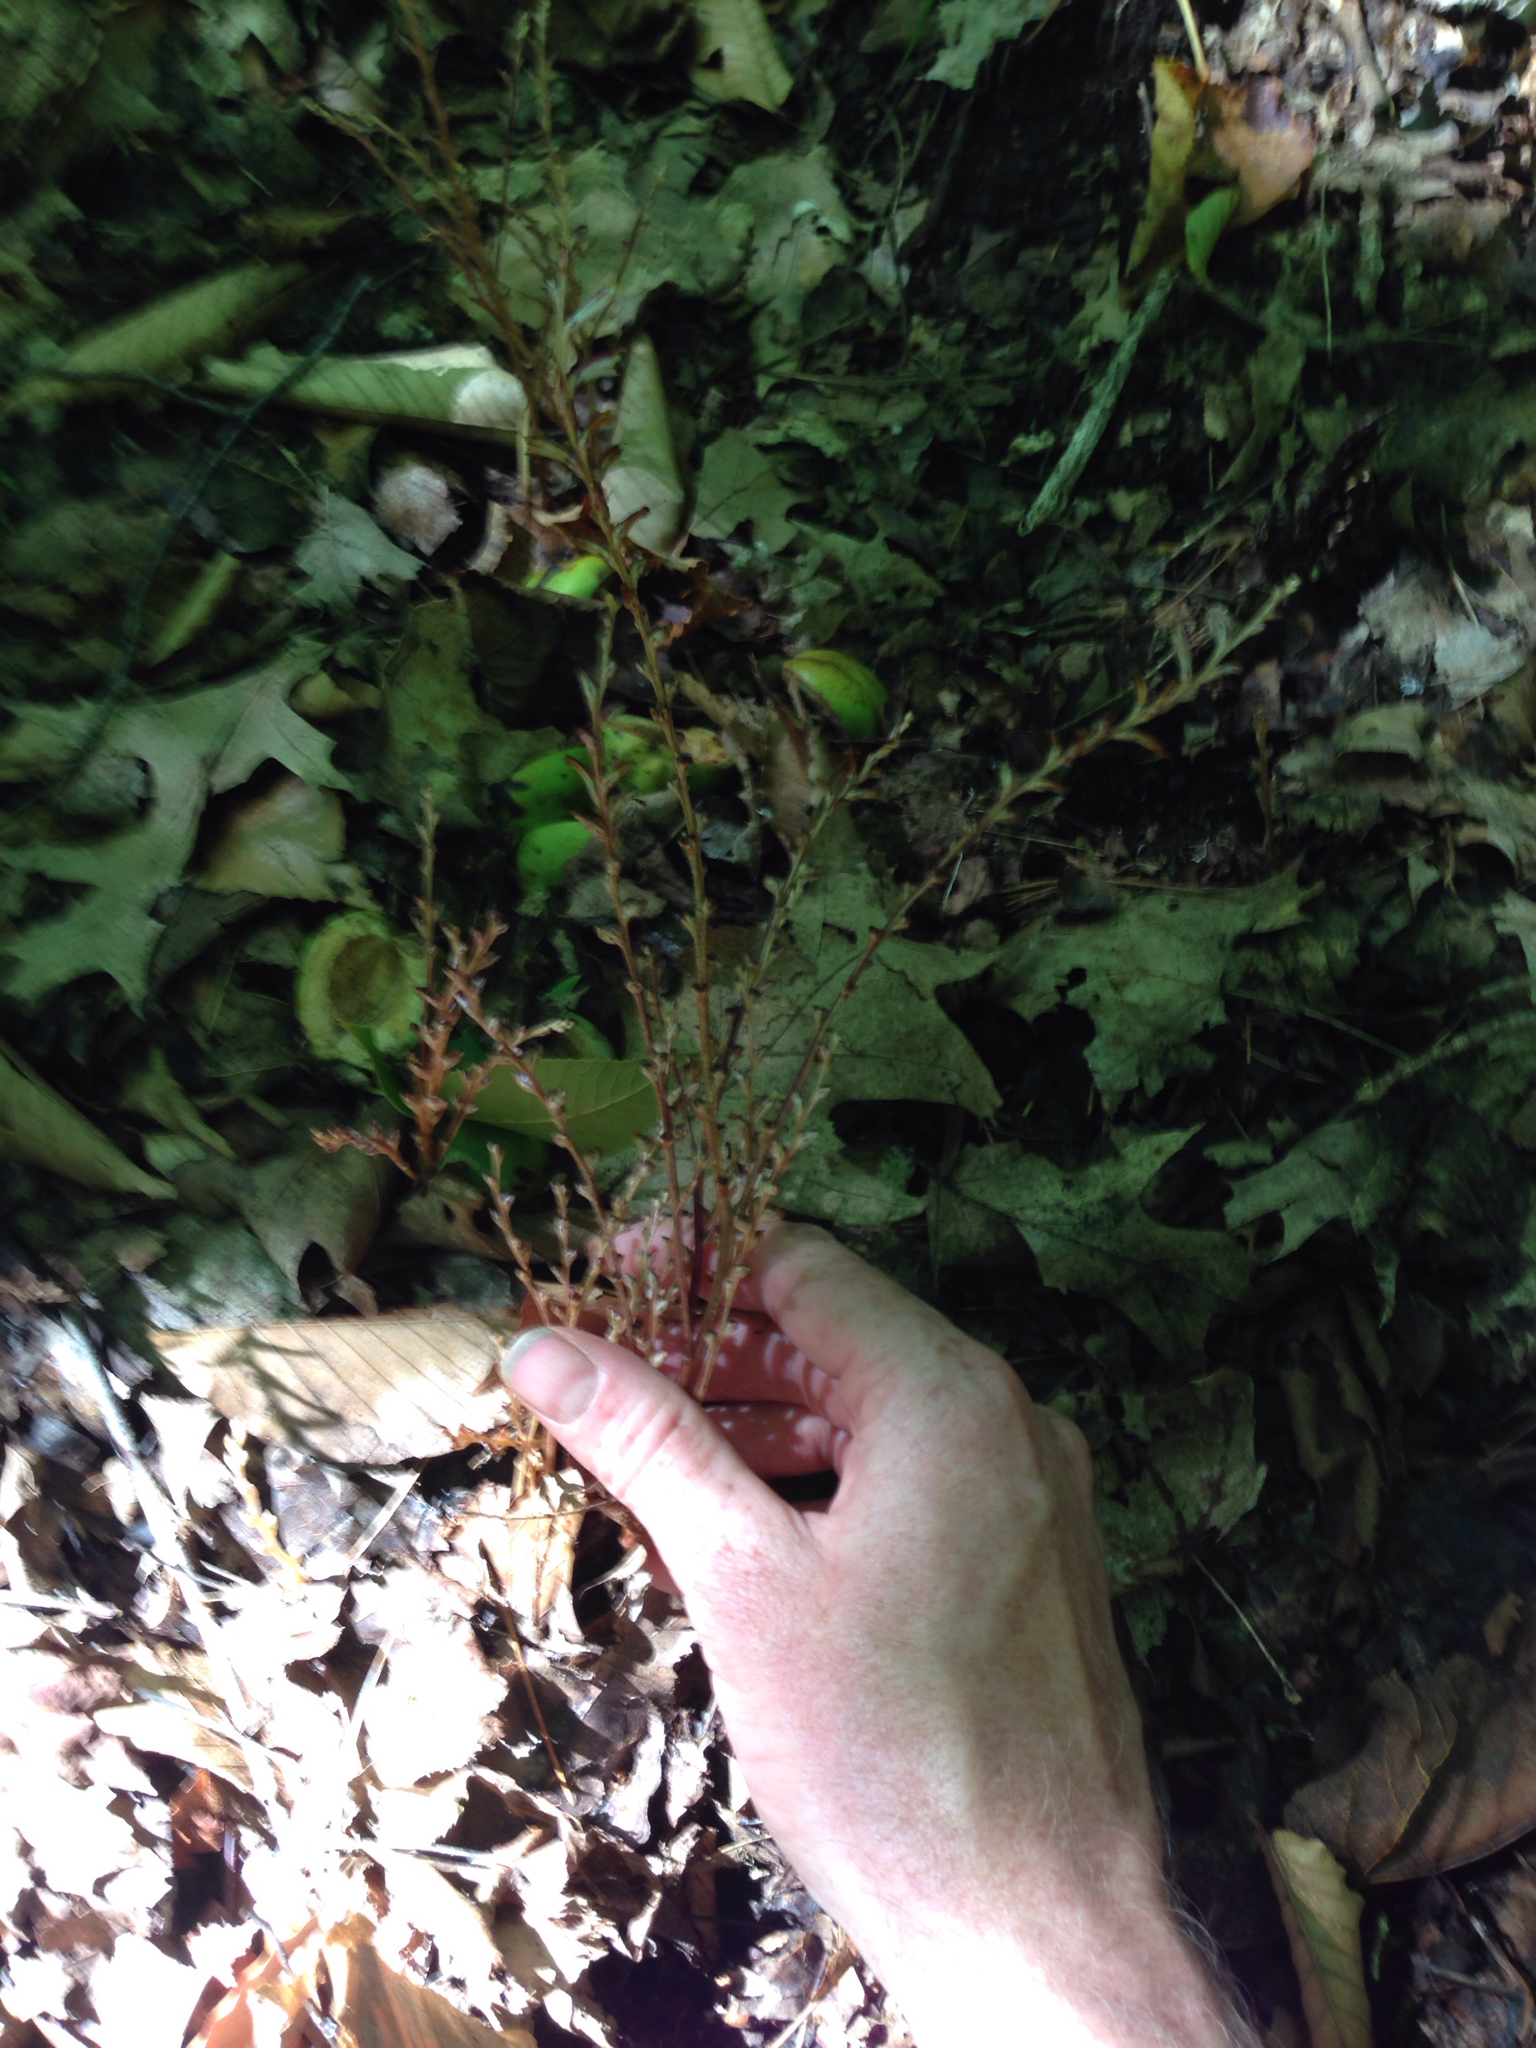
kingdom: Plantae
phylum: Tracheophyta
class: Magnoliopsida
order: Lamiales
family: Orobanchaceae
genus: Epifagus
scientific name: Epifagus virginiana
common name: Beechdrops
